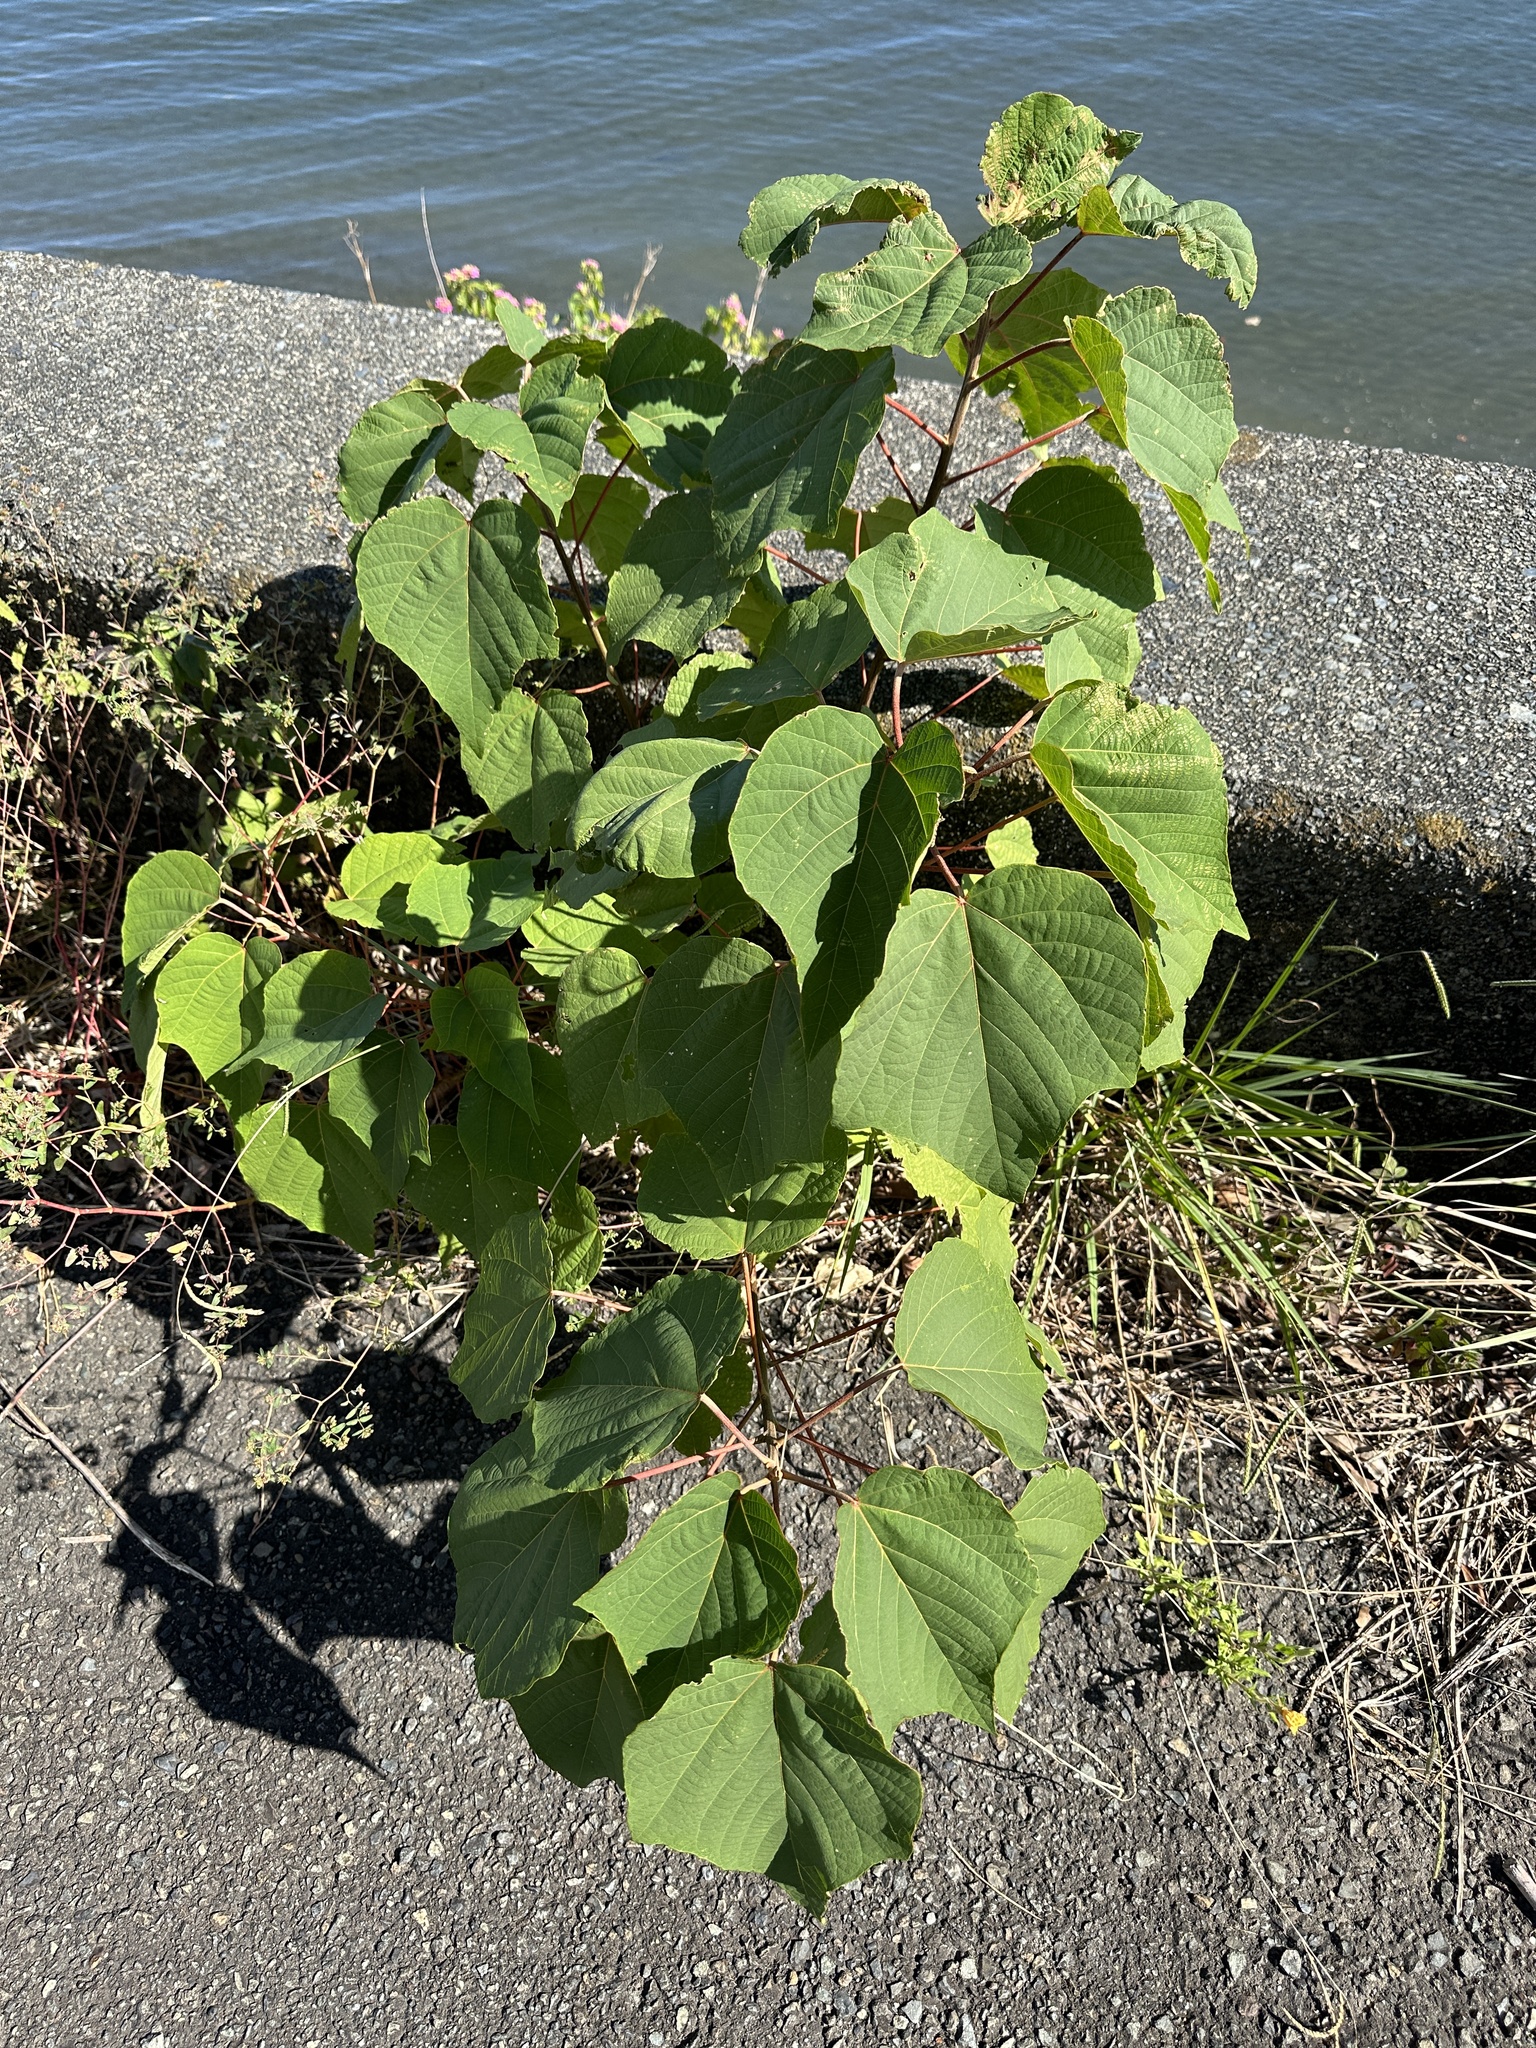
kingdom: Plantae
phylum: Tracheophyta
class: Magnoliopsida
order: Malpighiales
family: Euphorbiaceae
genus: Mallotus
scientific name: Mallotus japonicus
